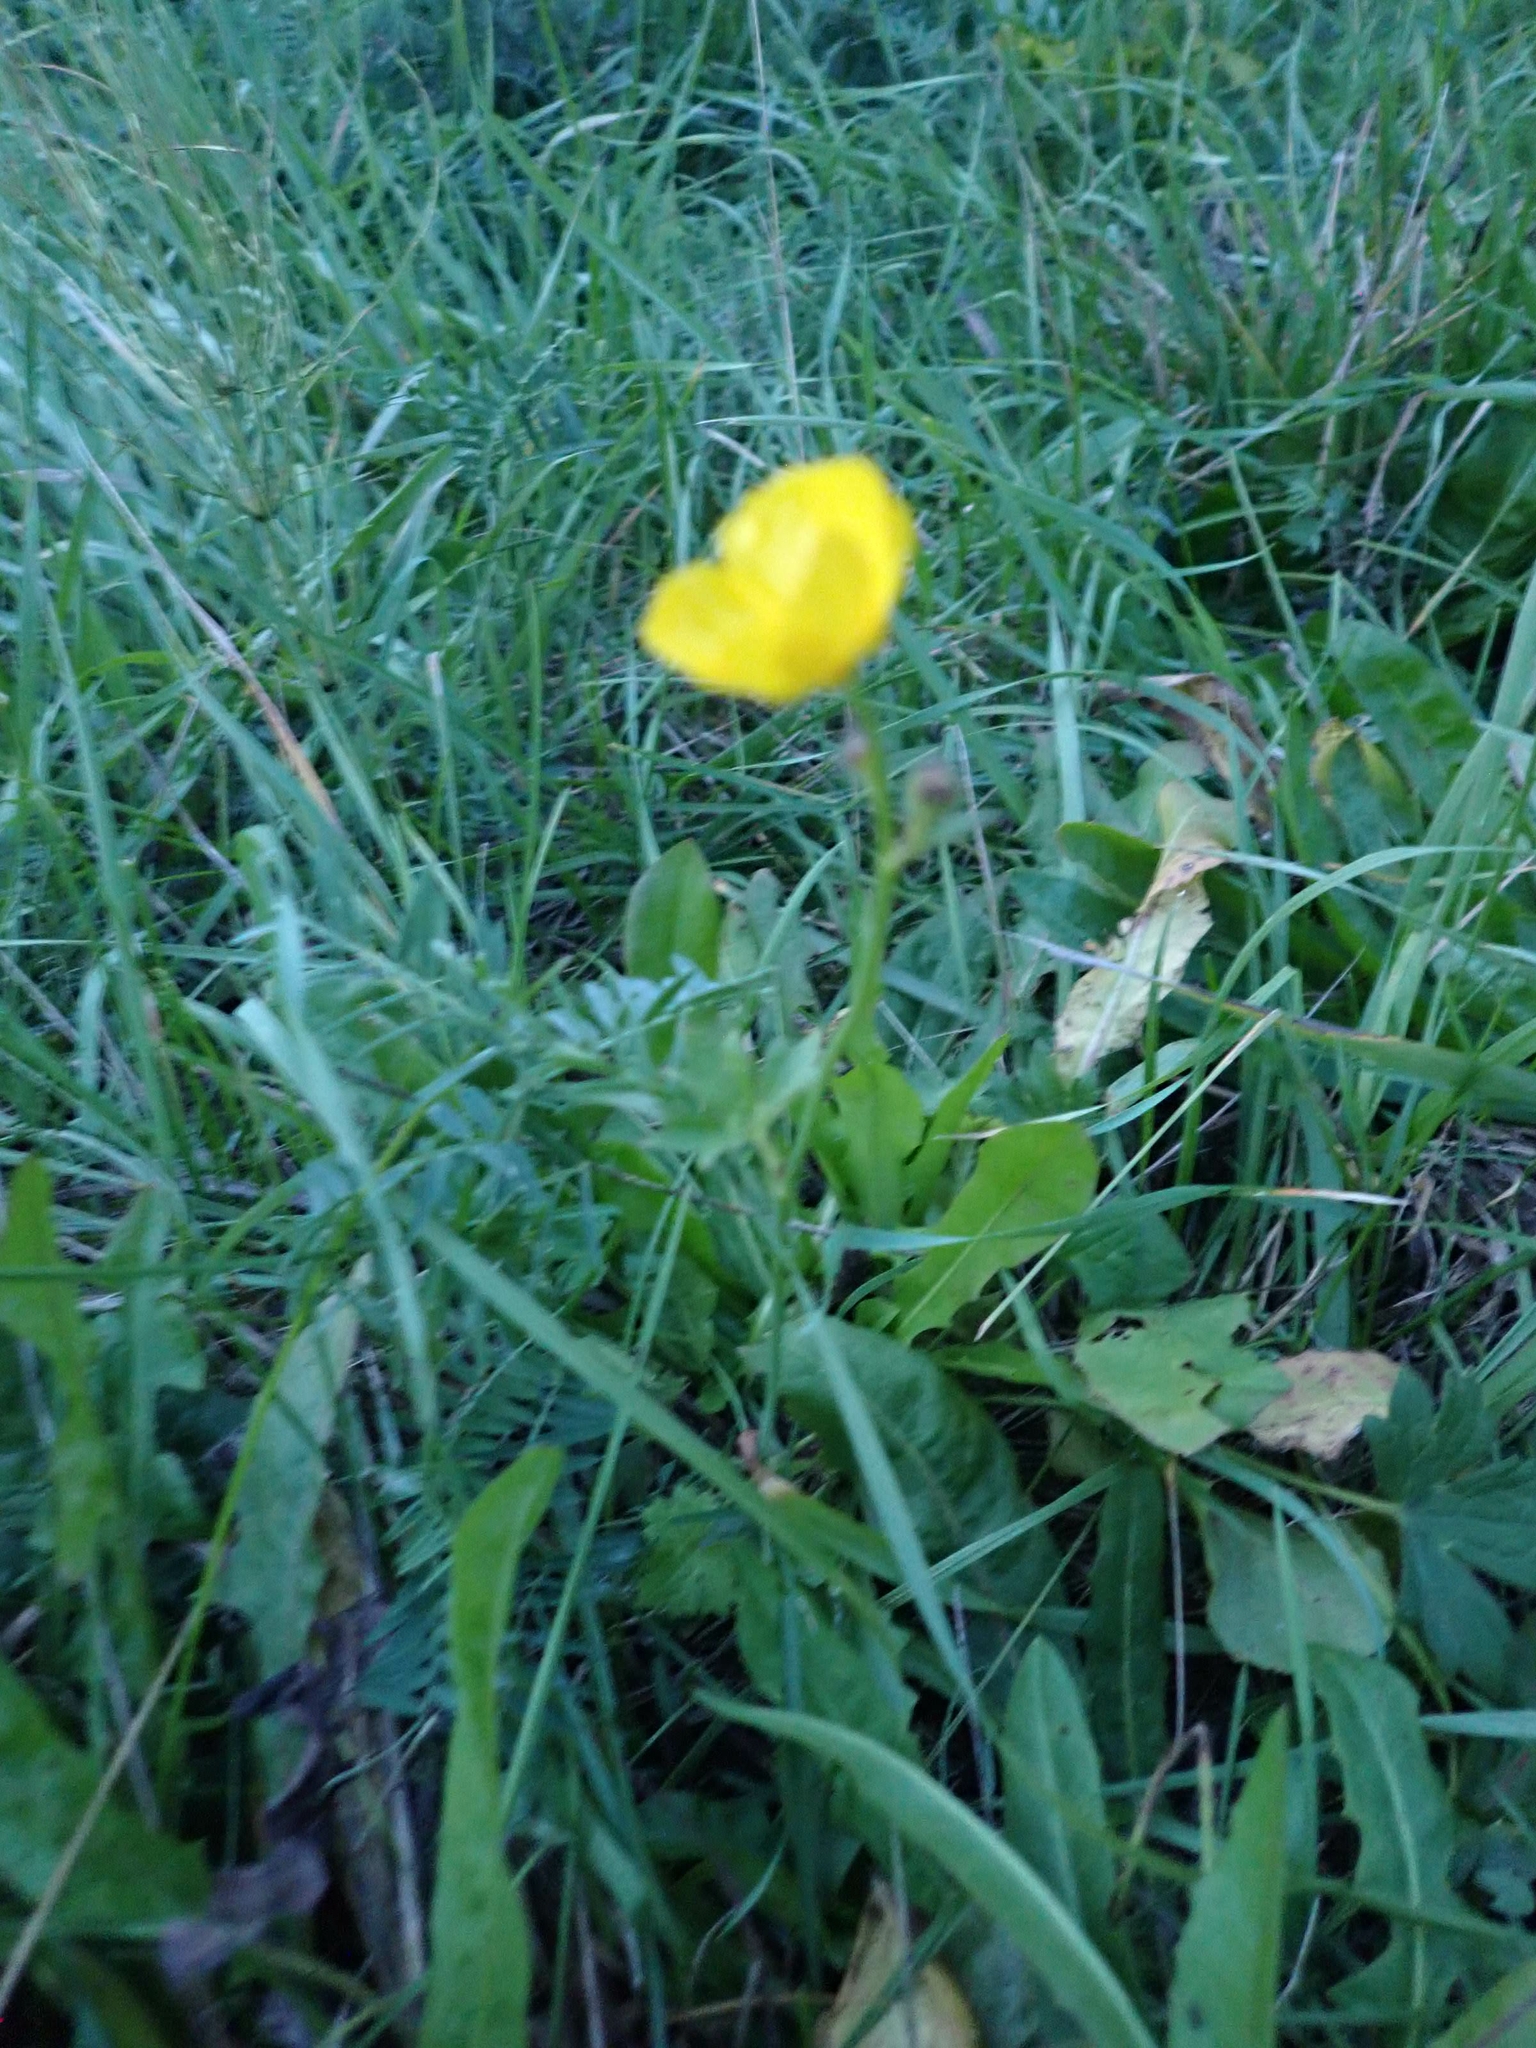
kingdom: Plantae
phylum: Tracheophyta
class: Magnoliopsida
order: Ranunculales
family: Ranunculaceae
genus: Ranunculus
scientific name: Ranunculus acris
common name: Meadow buttercup
